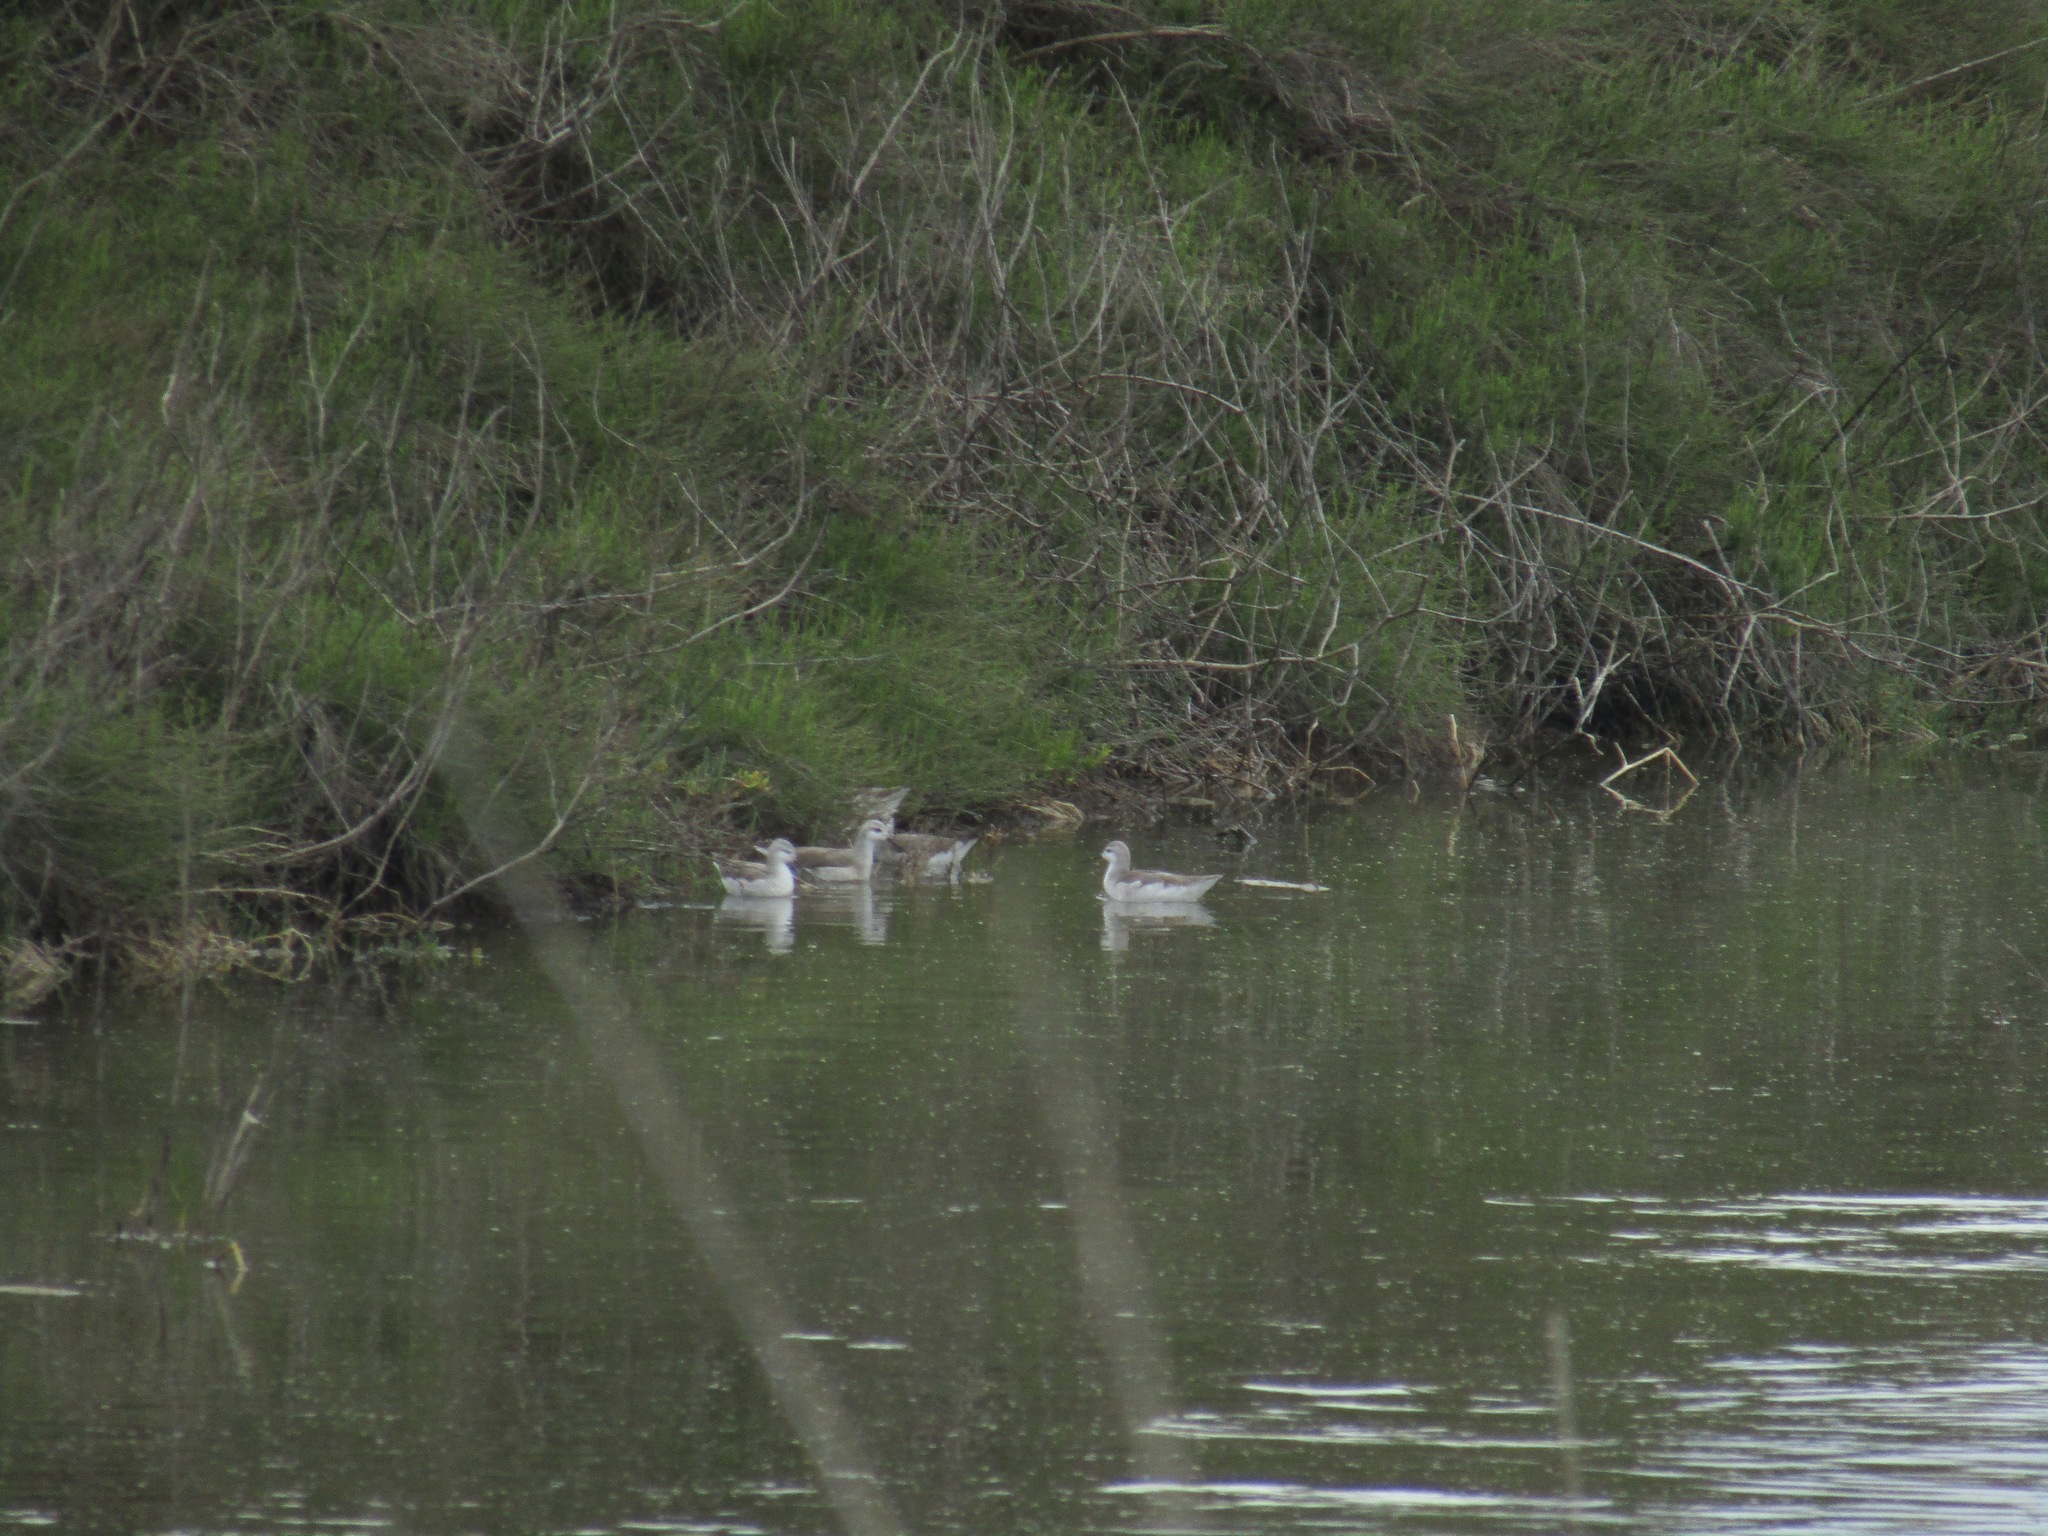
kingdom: Animalia
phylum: Chordata
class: Aves
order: Charadriiformes
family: Scolopacidae
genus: Phalaropus
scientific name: Phalaropus tricolor
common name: Wilson's phalarope
